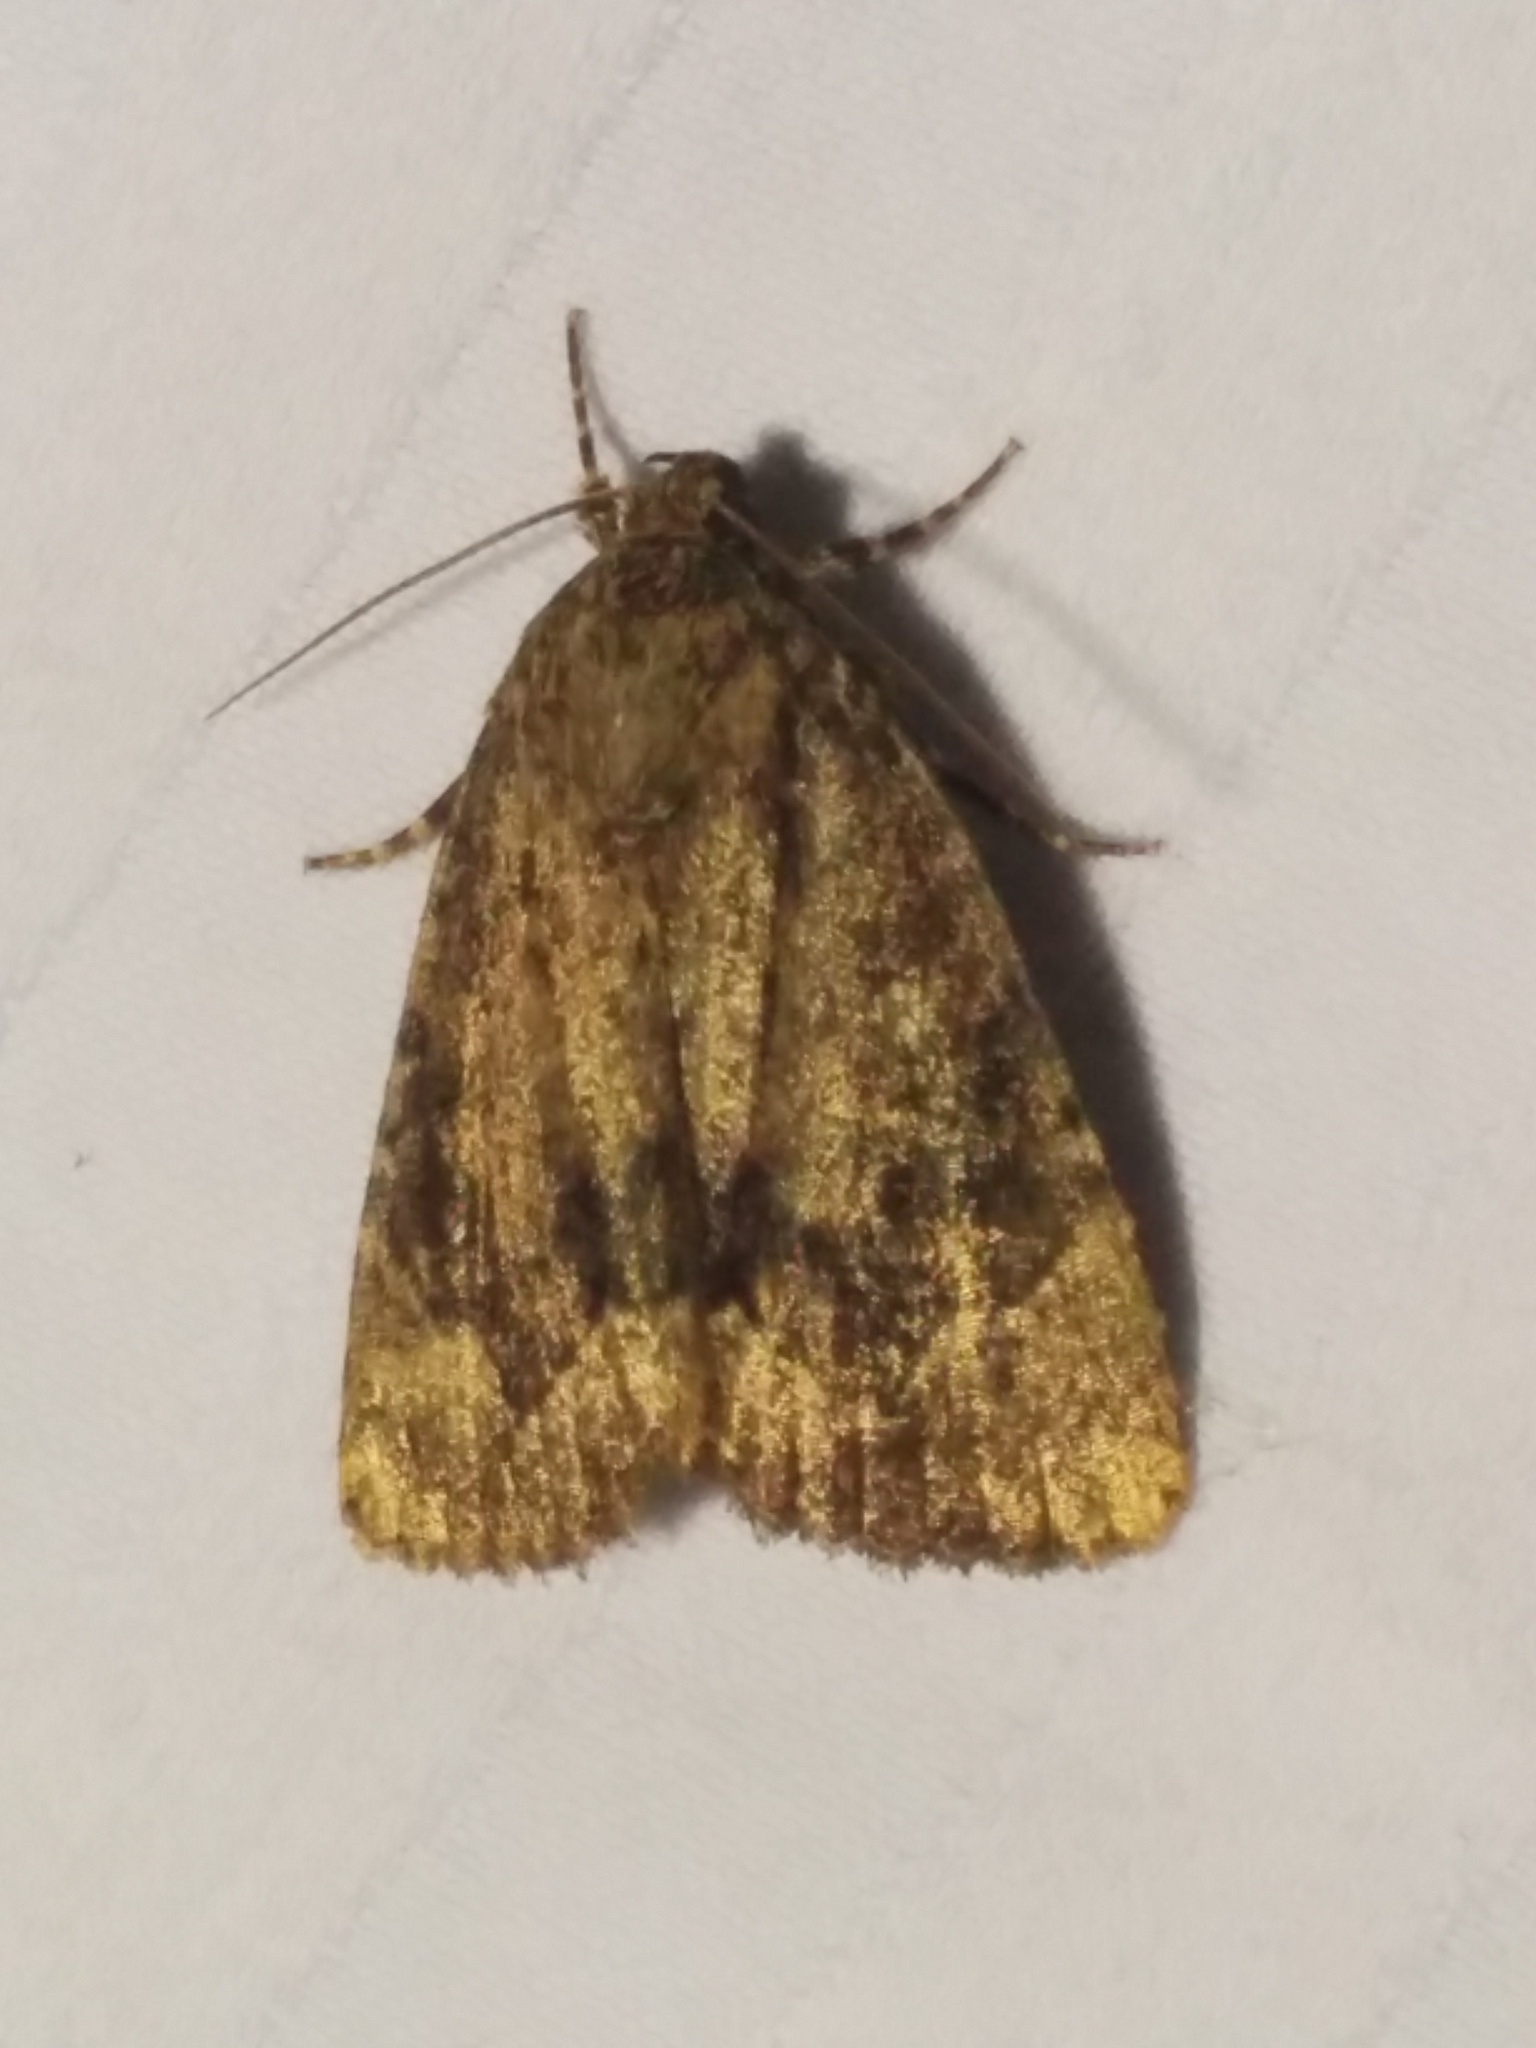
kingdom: Animalia
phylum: Arthropoda
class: Insecta
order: Lepidoptera
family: Noctuidae
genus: Amphipyra
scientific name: Amphipyra pyramidoides
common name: American copper underwing
